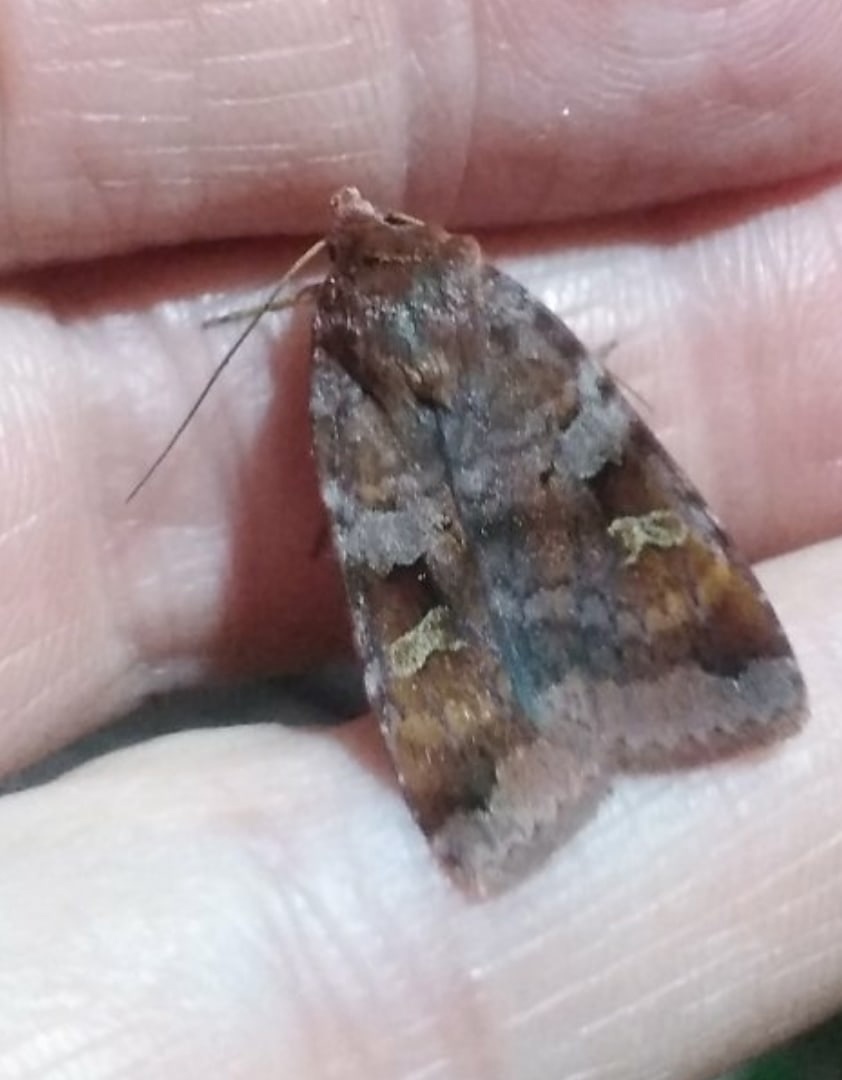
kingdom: Animalia
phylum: Arthropoda
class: Insecta
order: Lepidoptera
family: Noctuidae
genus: Diarsia
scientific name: Diarsia brunnea
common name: Purple clay
